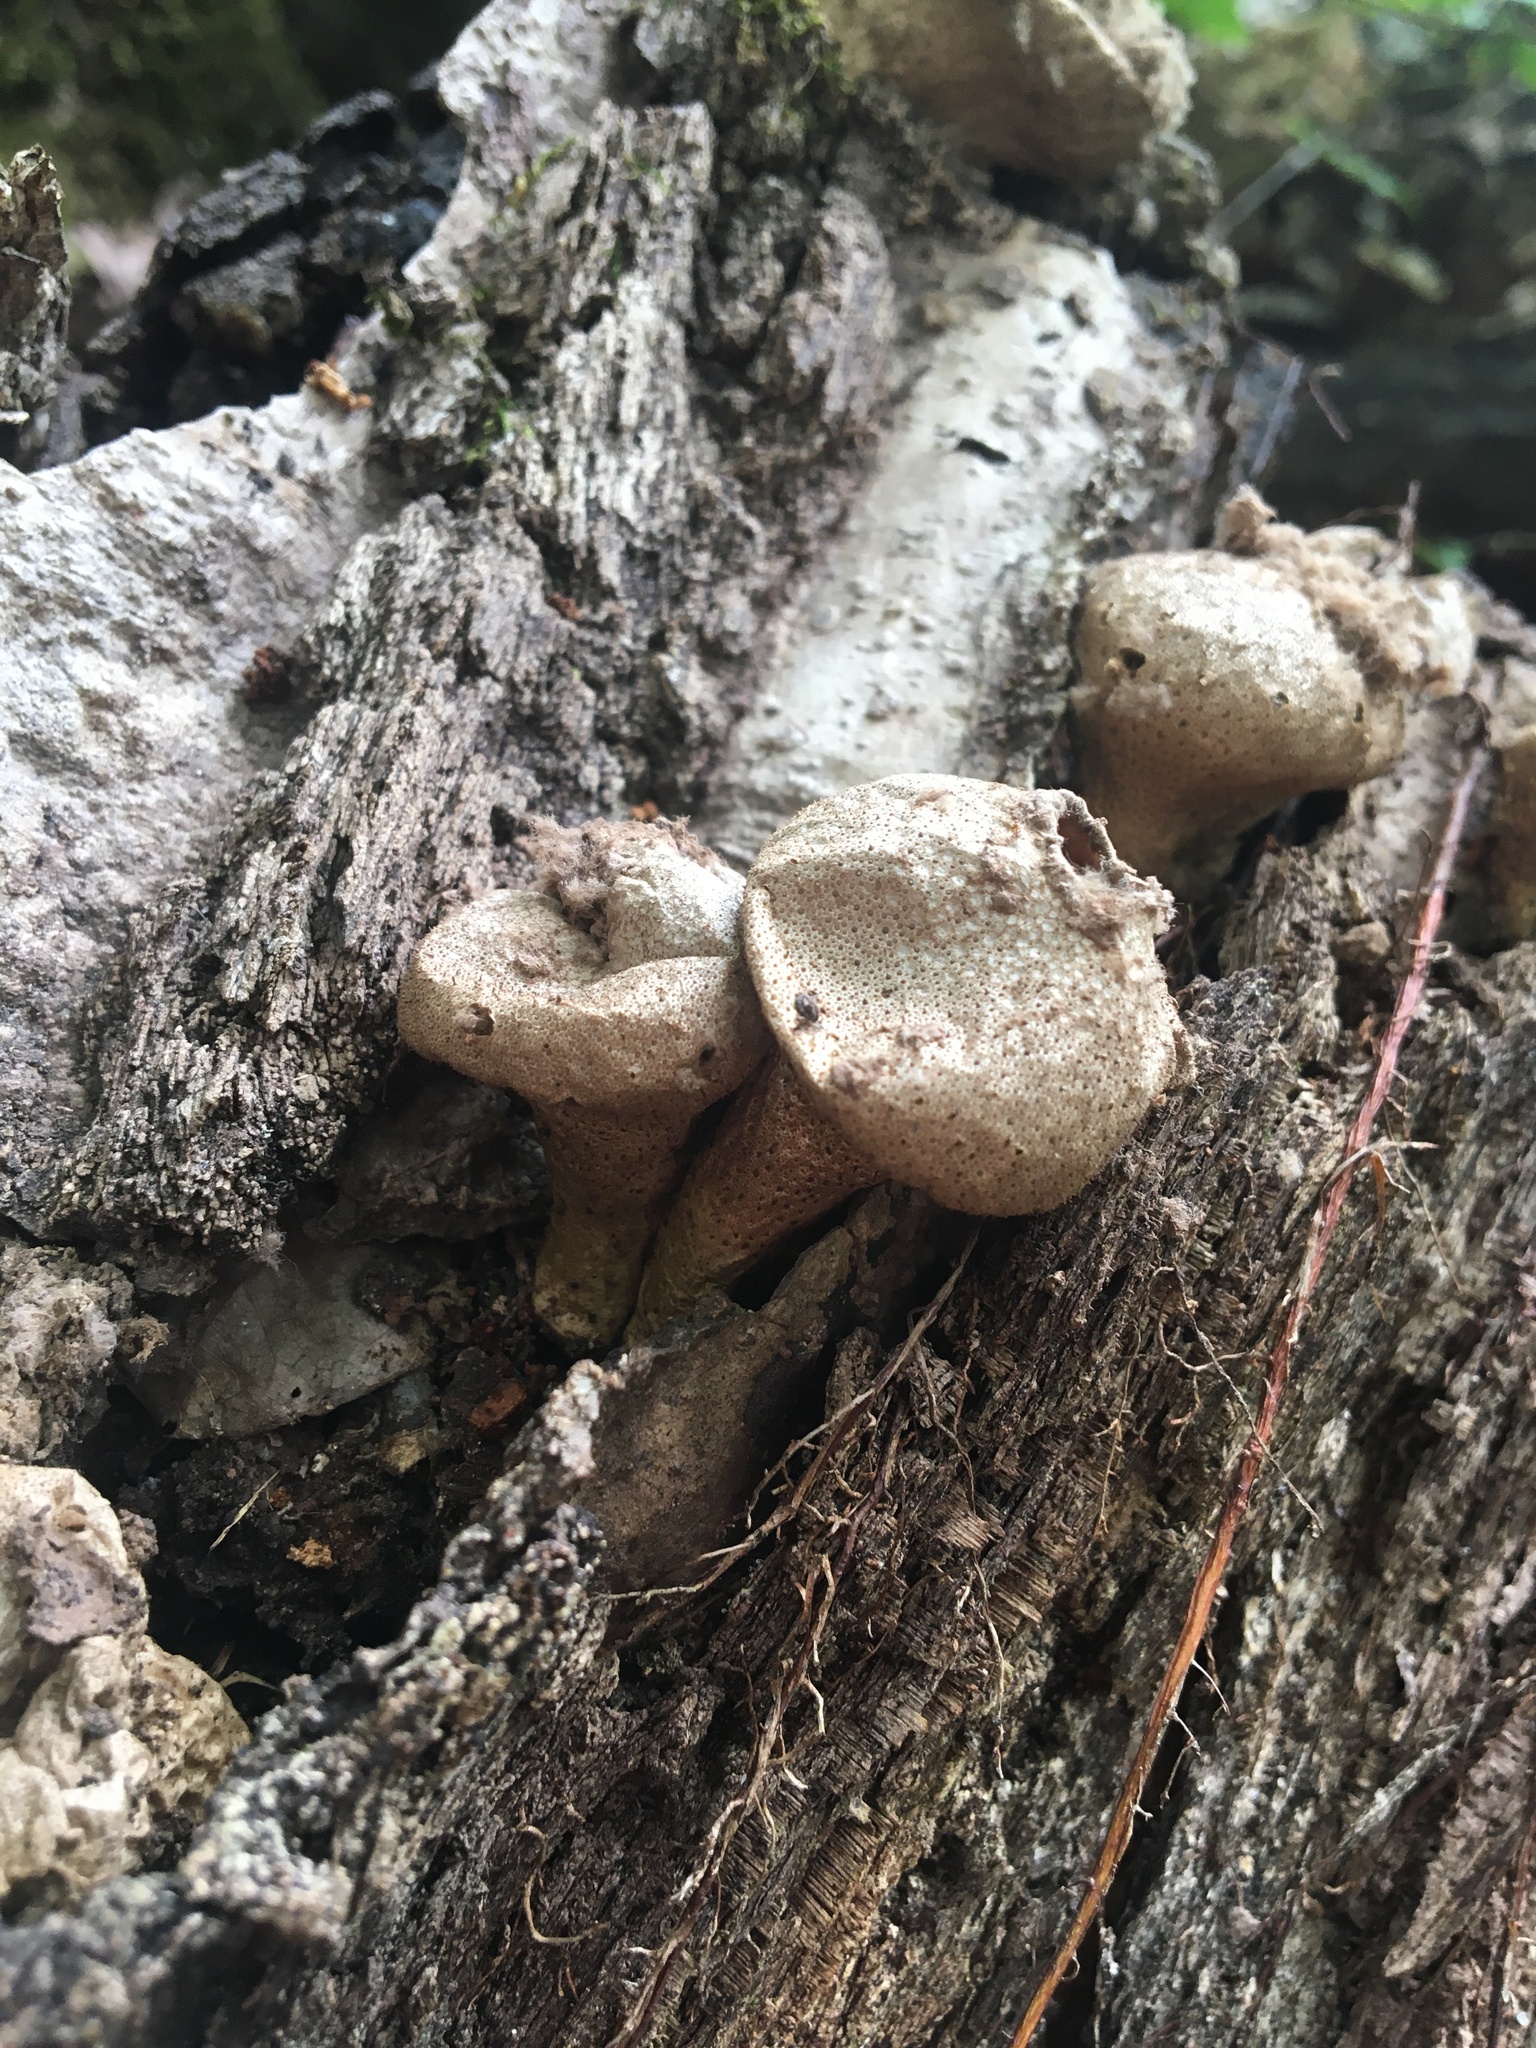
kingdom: Fungi
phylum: Basidiomycota
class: Agaricomycetes
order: Agaricales
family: Lycoperdaceae
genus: Apioperdon
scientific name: Apioperdon pyriforme
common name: Pear-shaped puffball
